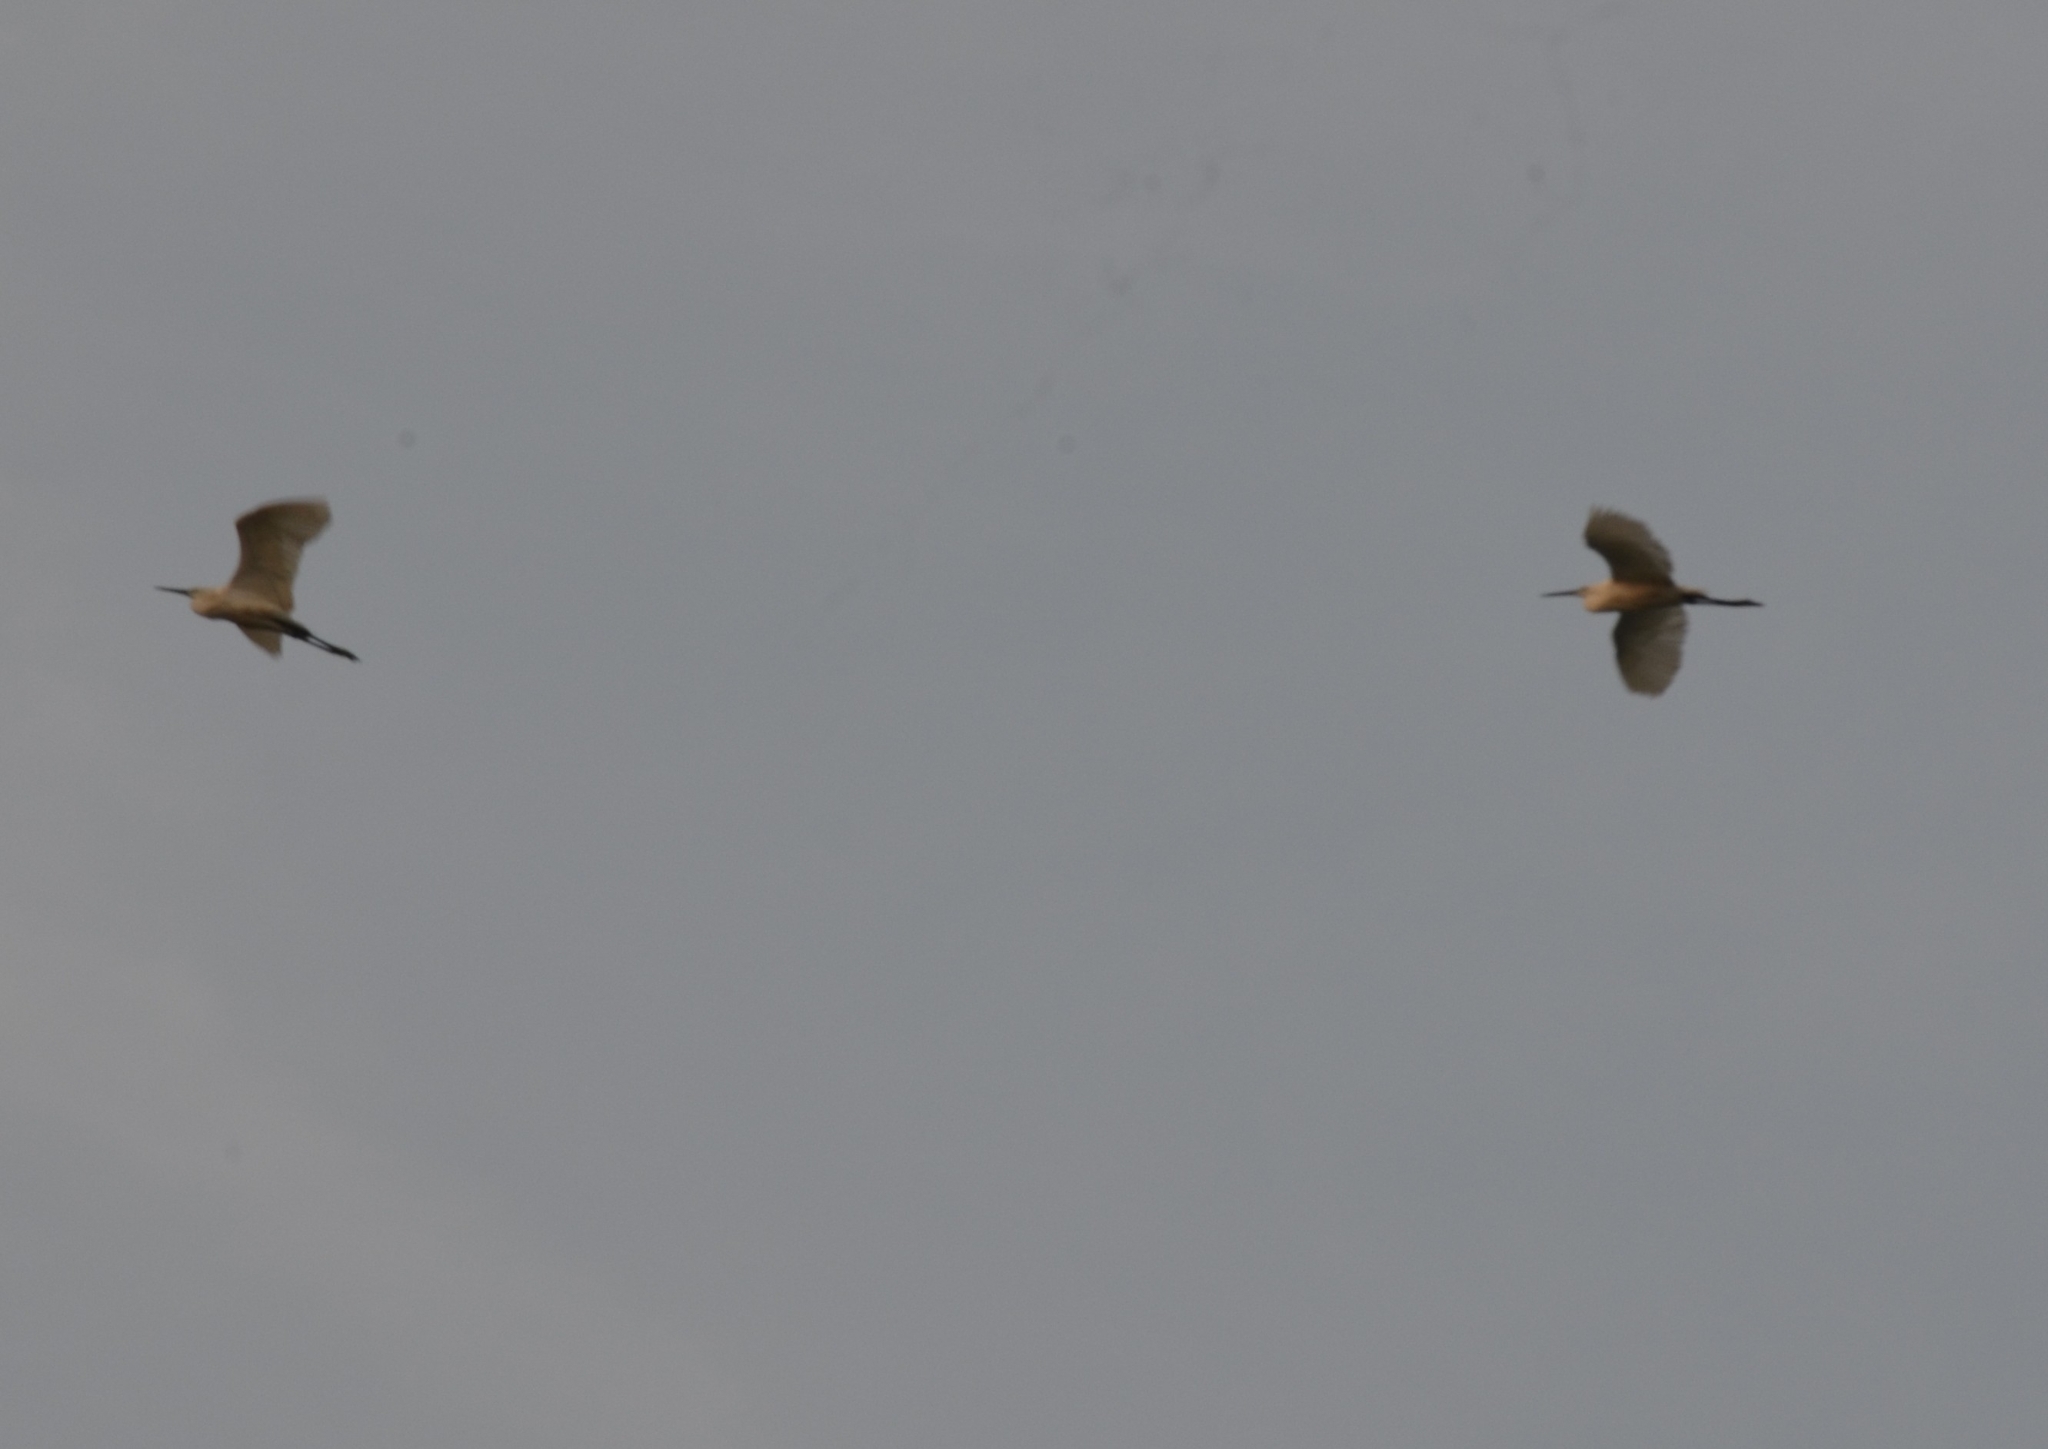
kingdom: Animalia
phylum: Chordata
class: Aves
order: Pelecaniformes
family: Ardeidae
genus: Egretta
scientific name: Egretta garzetta
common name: Little egret
